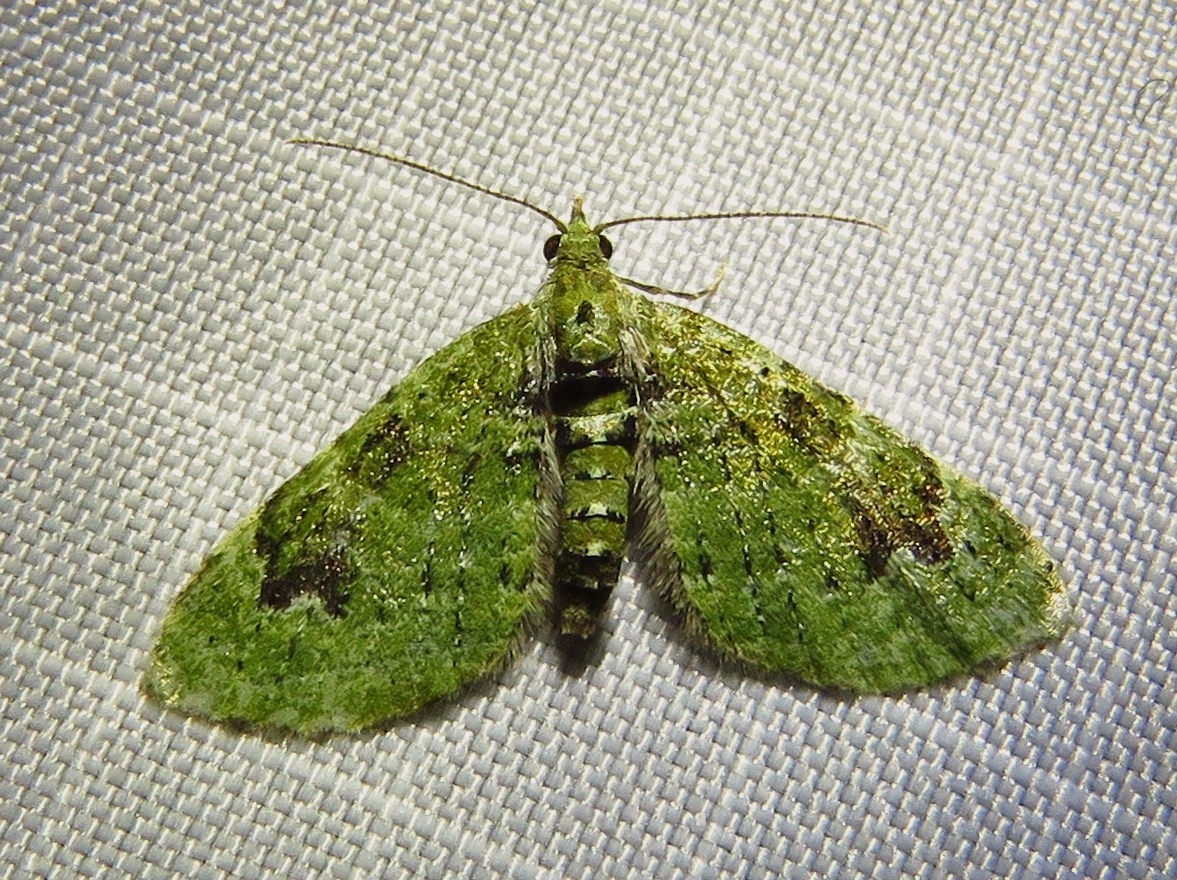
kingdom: Animalia
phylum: Arthropoda
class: Insecta
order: Lepidoptera
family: Geometridae
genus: Chloroclystis
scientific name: Chloroclystis v-ata
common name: V-pug
